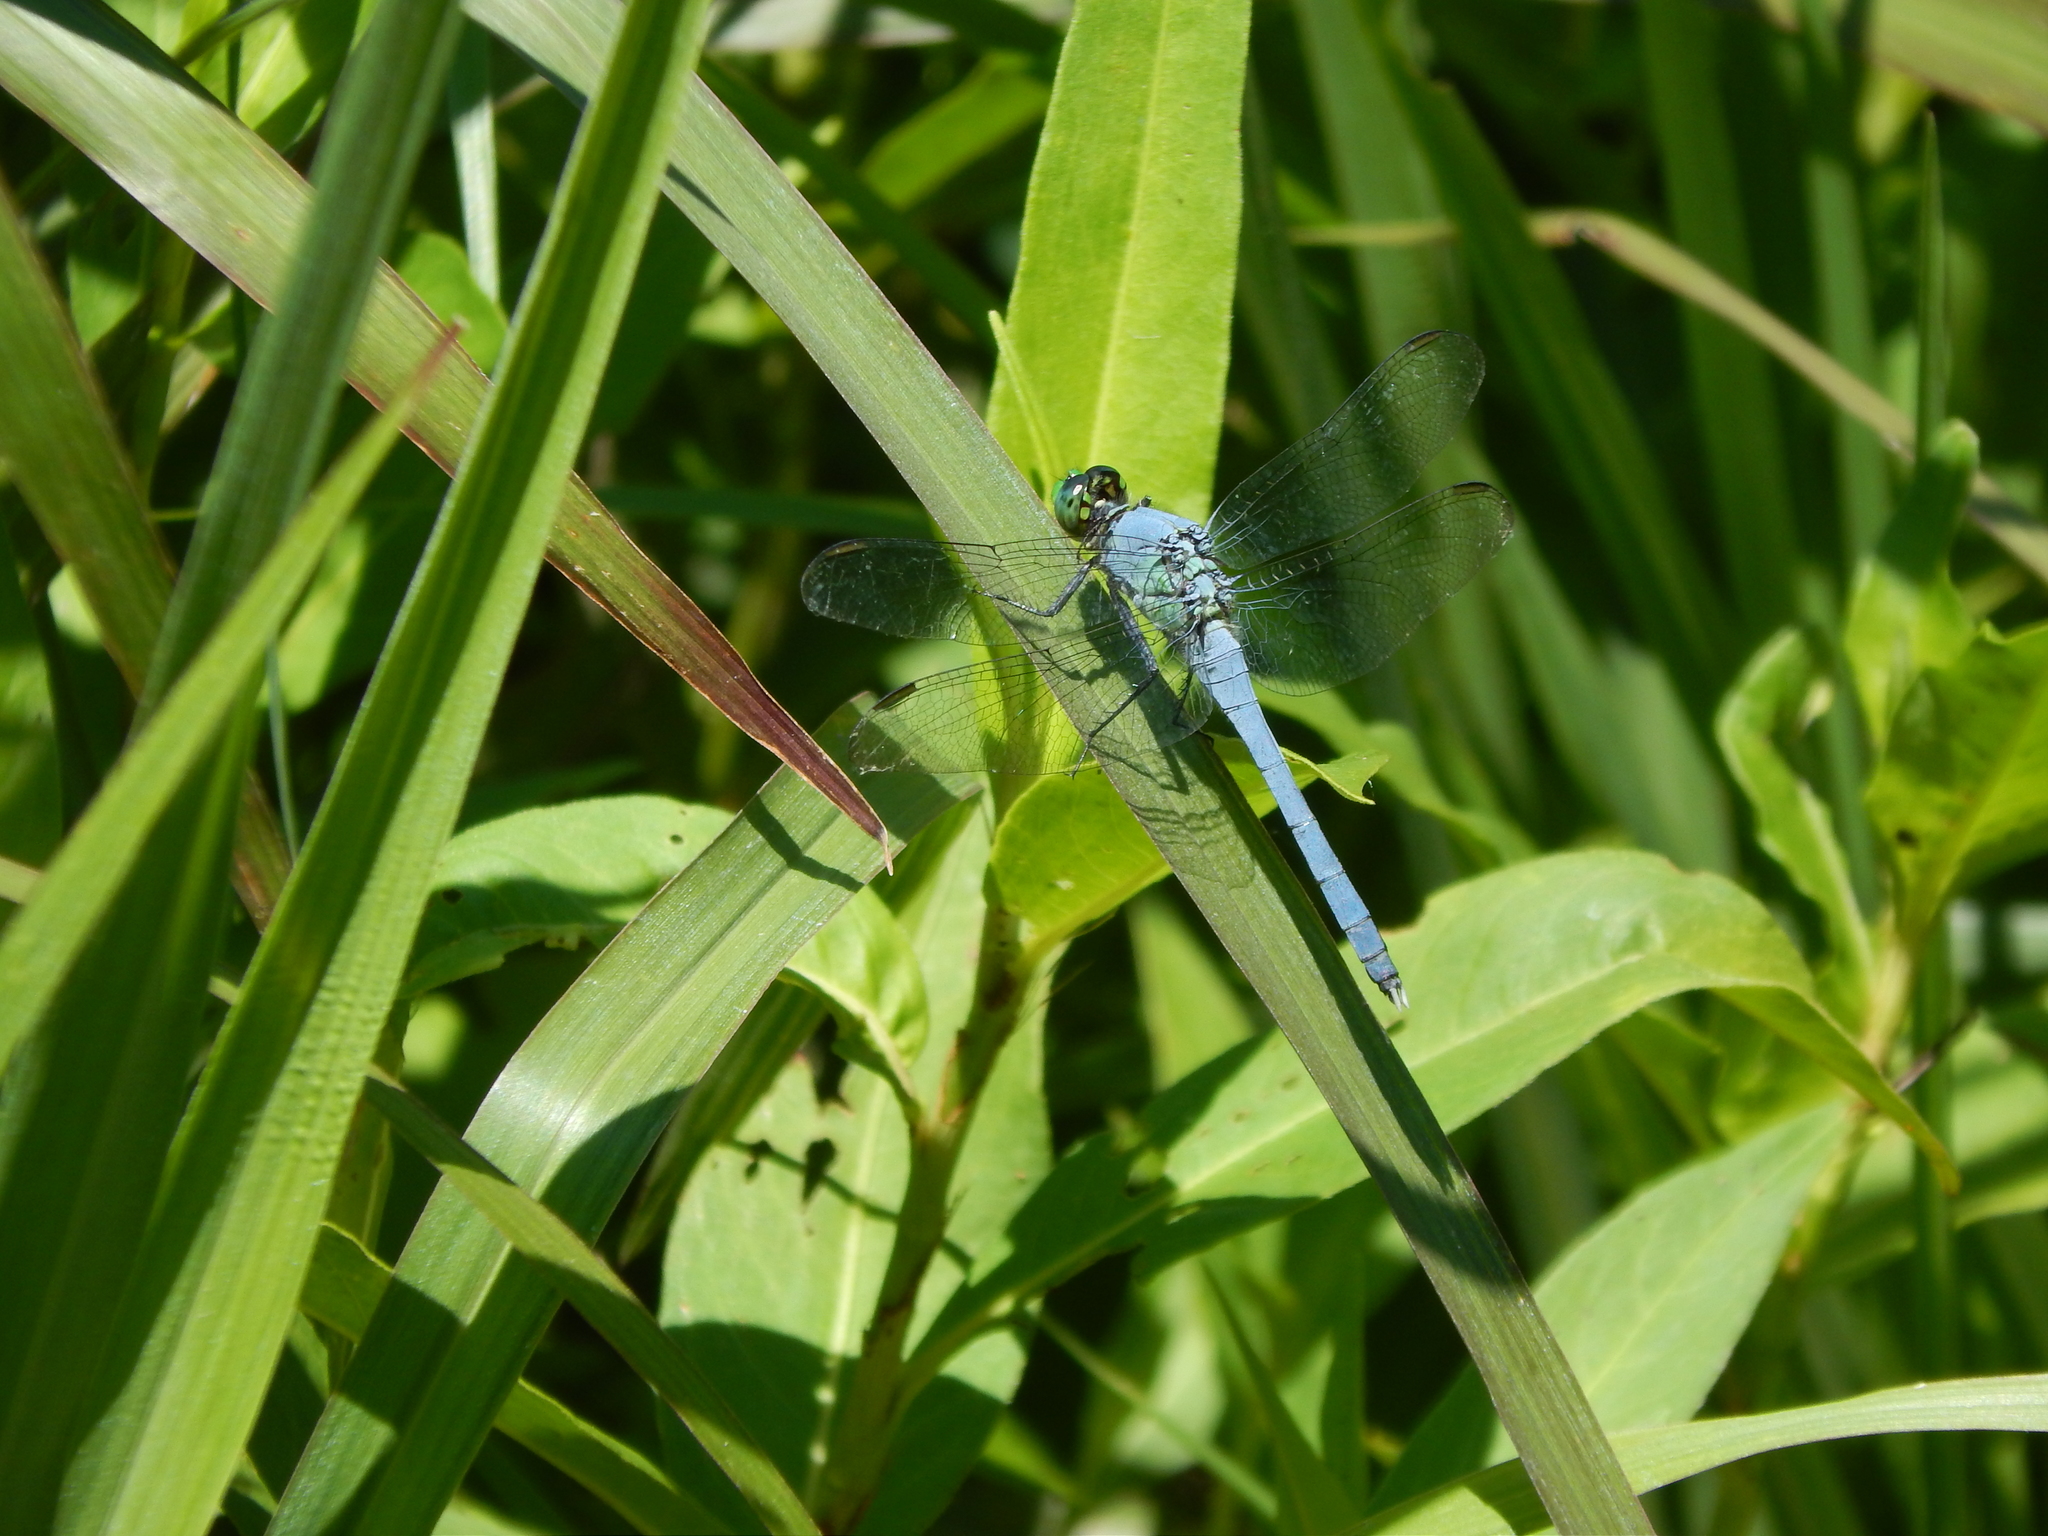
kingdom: Animalia
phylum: Arthropoda
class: Insecta
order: Odonata
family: Libellulidae
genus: Erythemis
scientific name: Erythemis simplicicollis
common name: Eastern pondhawk
